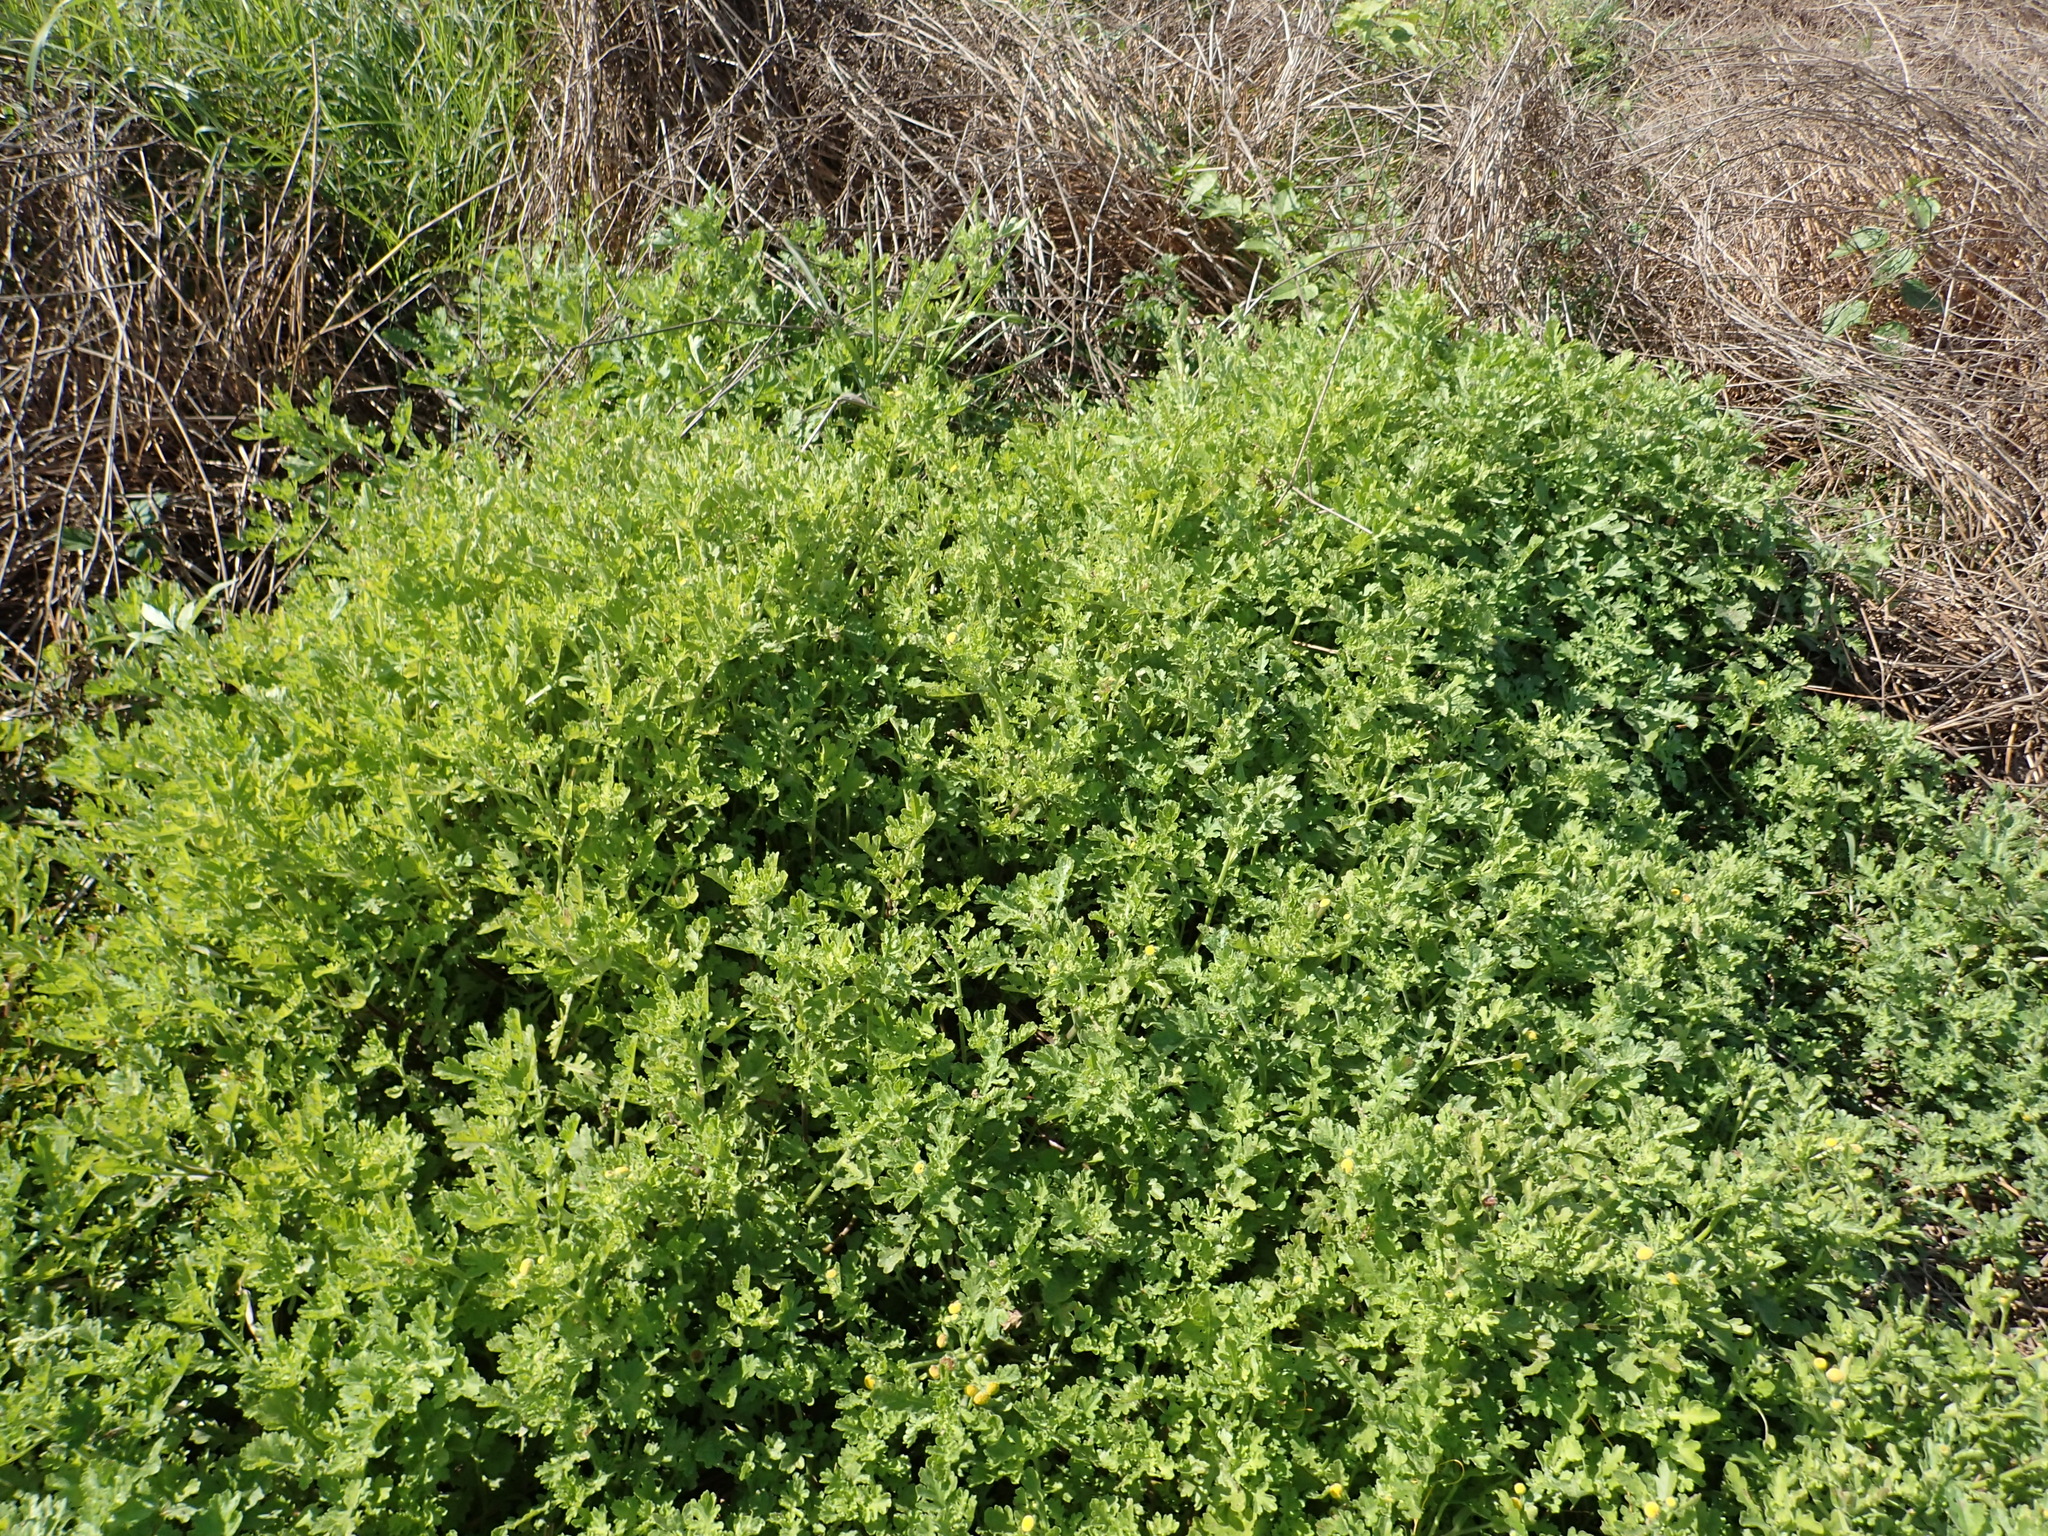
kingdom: Plantae
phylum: Tracheophyta
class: Magnoliopsida
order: Asterales
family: Asteraceae
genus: Grangea
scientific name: Grangea maderaspatana
